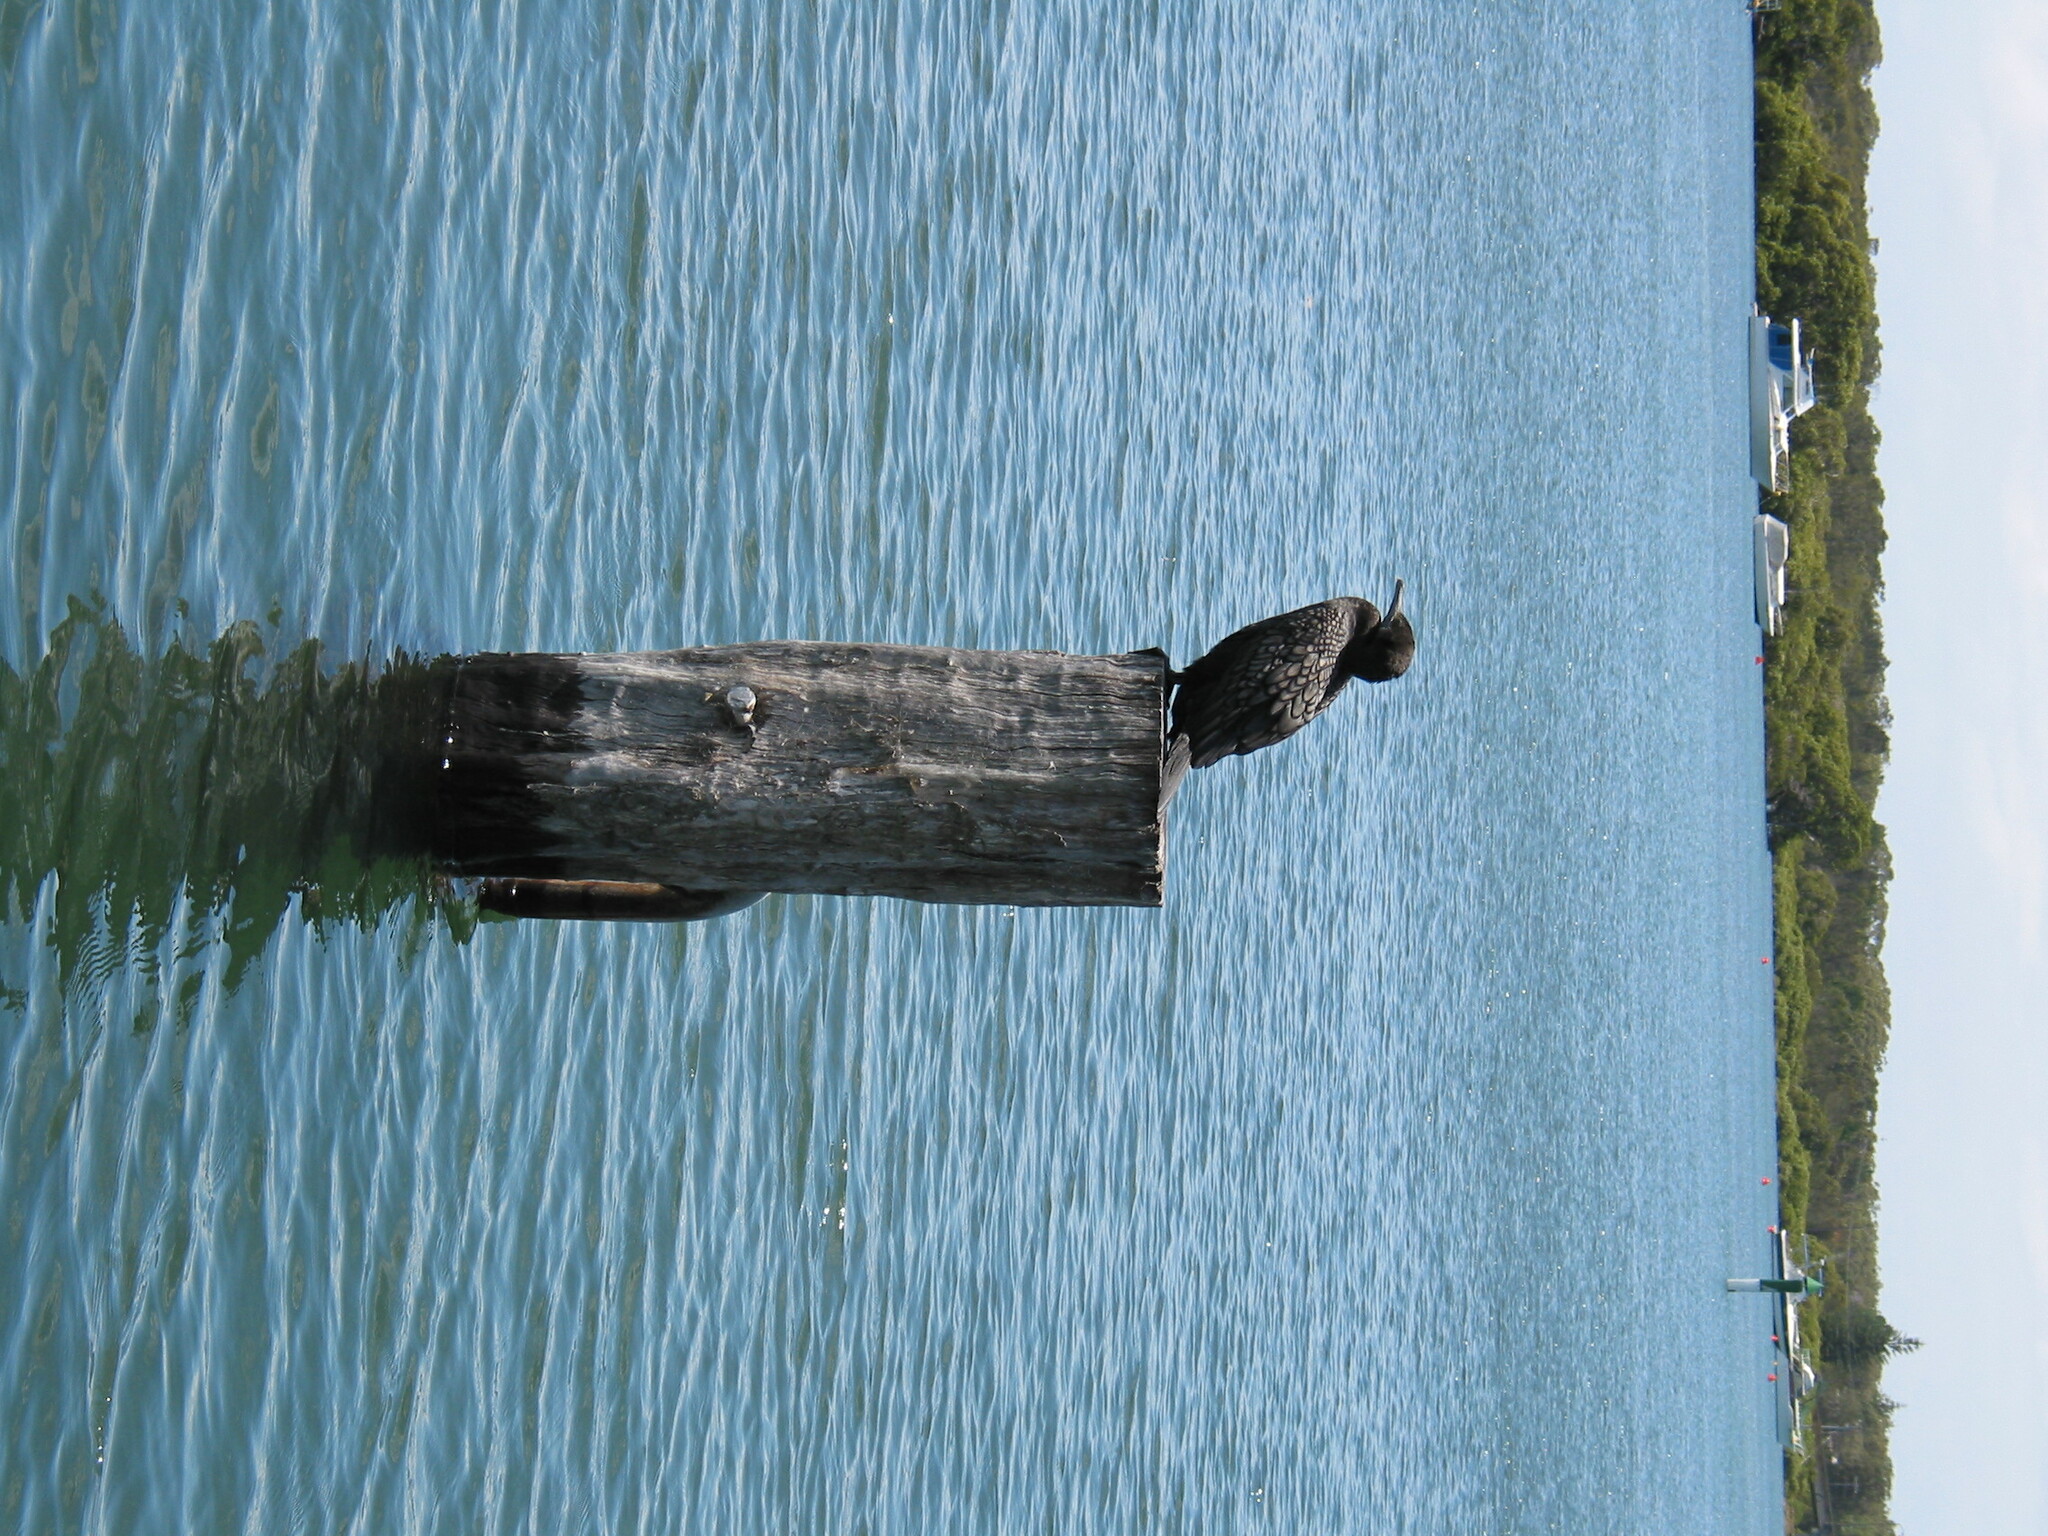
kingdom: Animalia
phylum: Chordata
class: Aves
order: Suliformes
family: Phalacrocoracidae
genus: Phalacrocorax
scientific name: Phalacrocorax sulcirostris
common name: Little black cormorant
